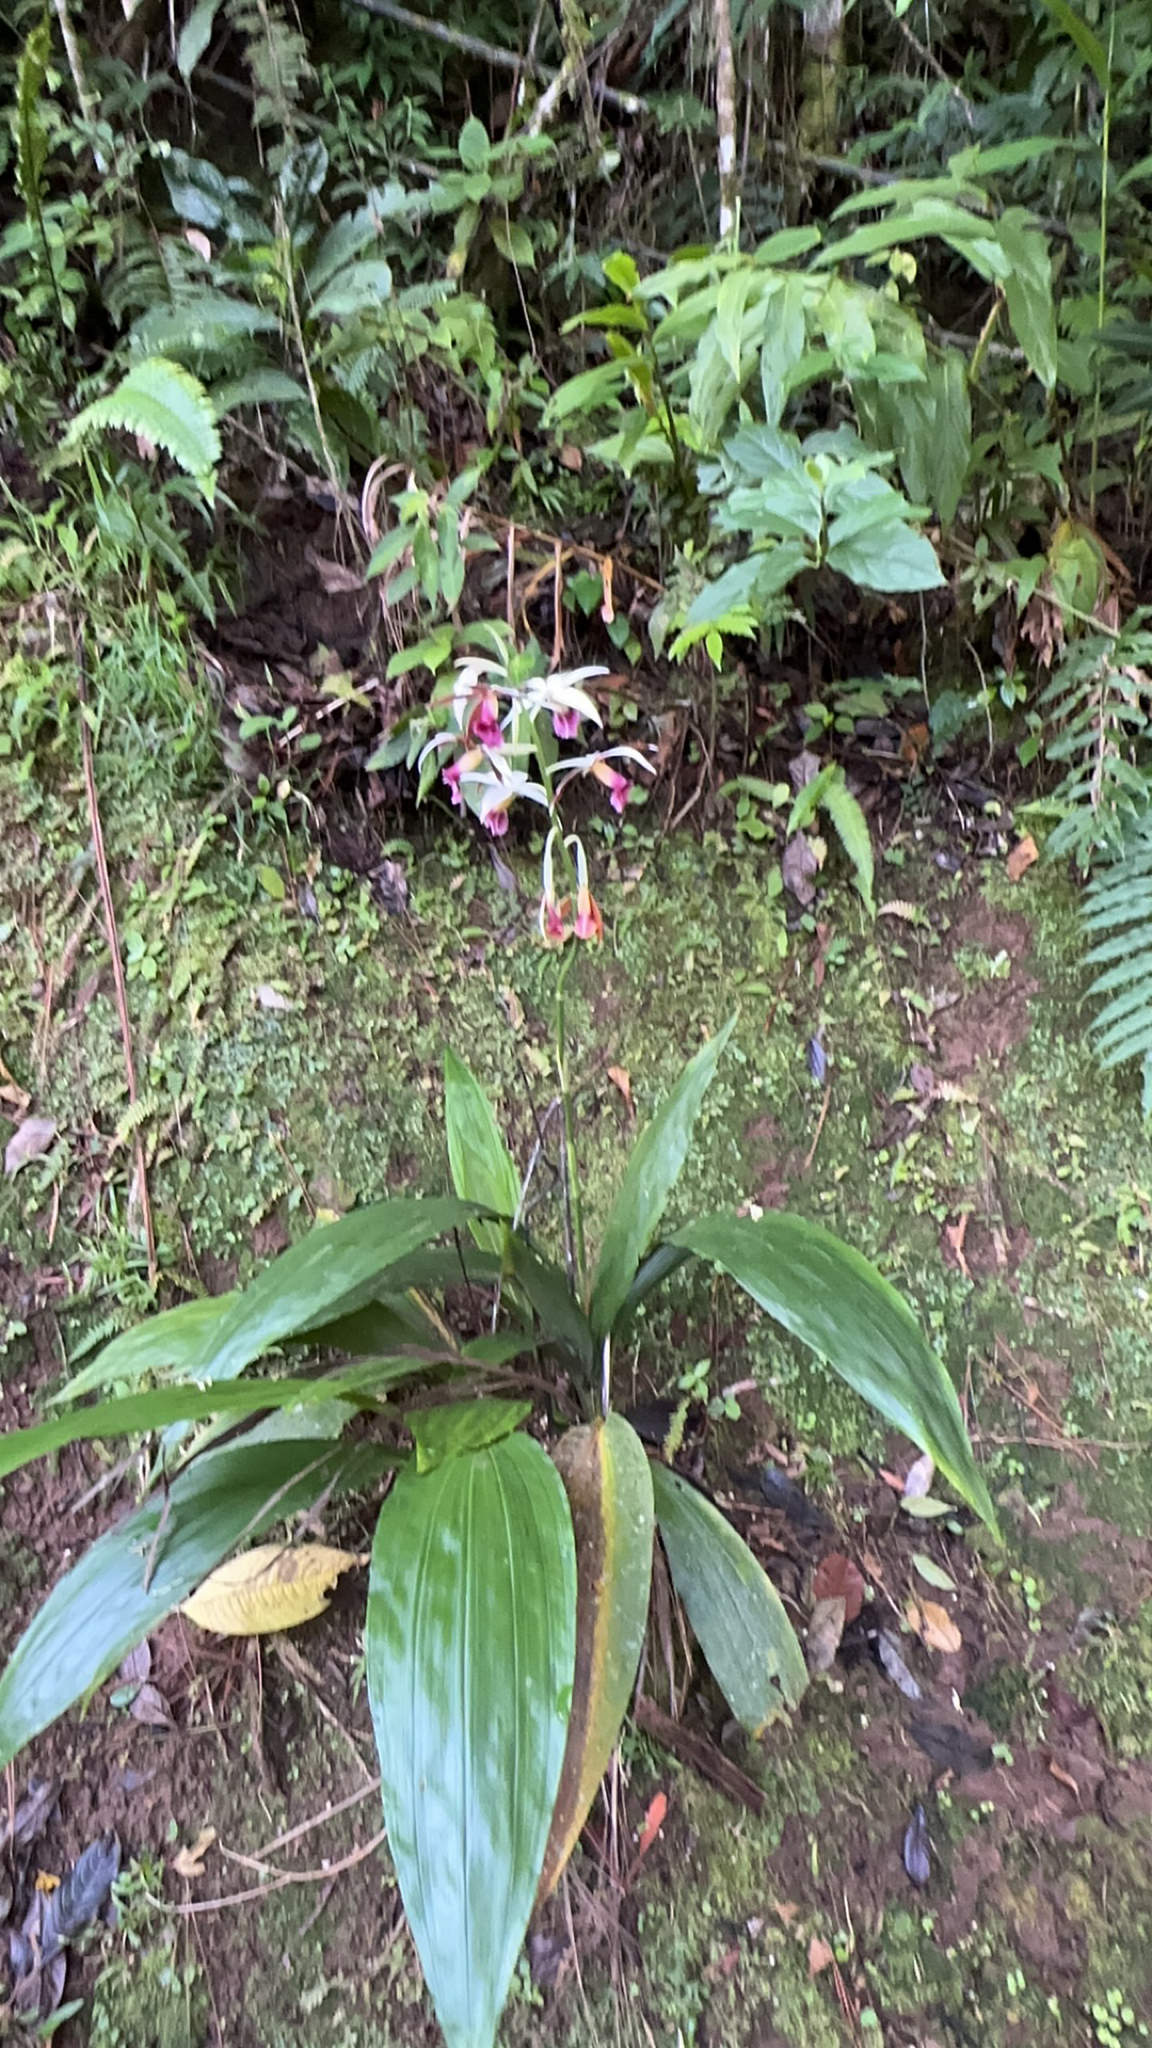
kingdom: Plantae
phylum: Tracheophyta
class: Liliopsida
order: Asparagales
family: Orchidaceae
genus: Calanthe
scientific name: Calanthe tankervilleae
